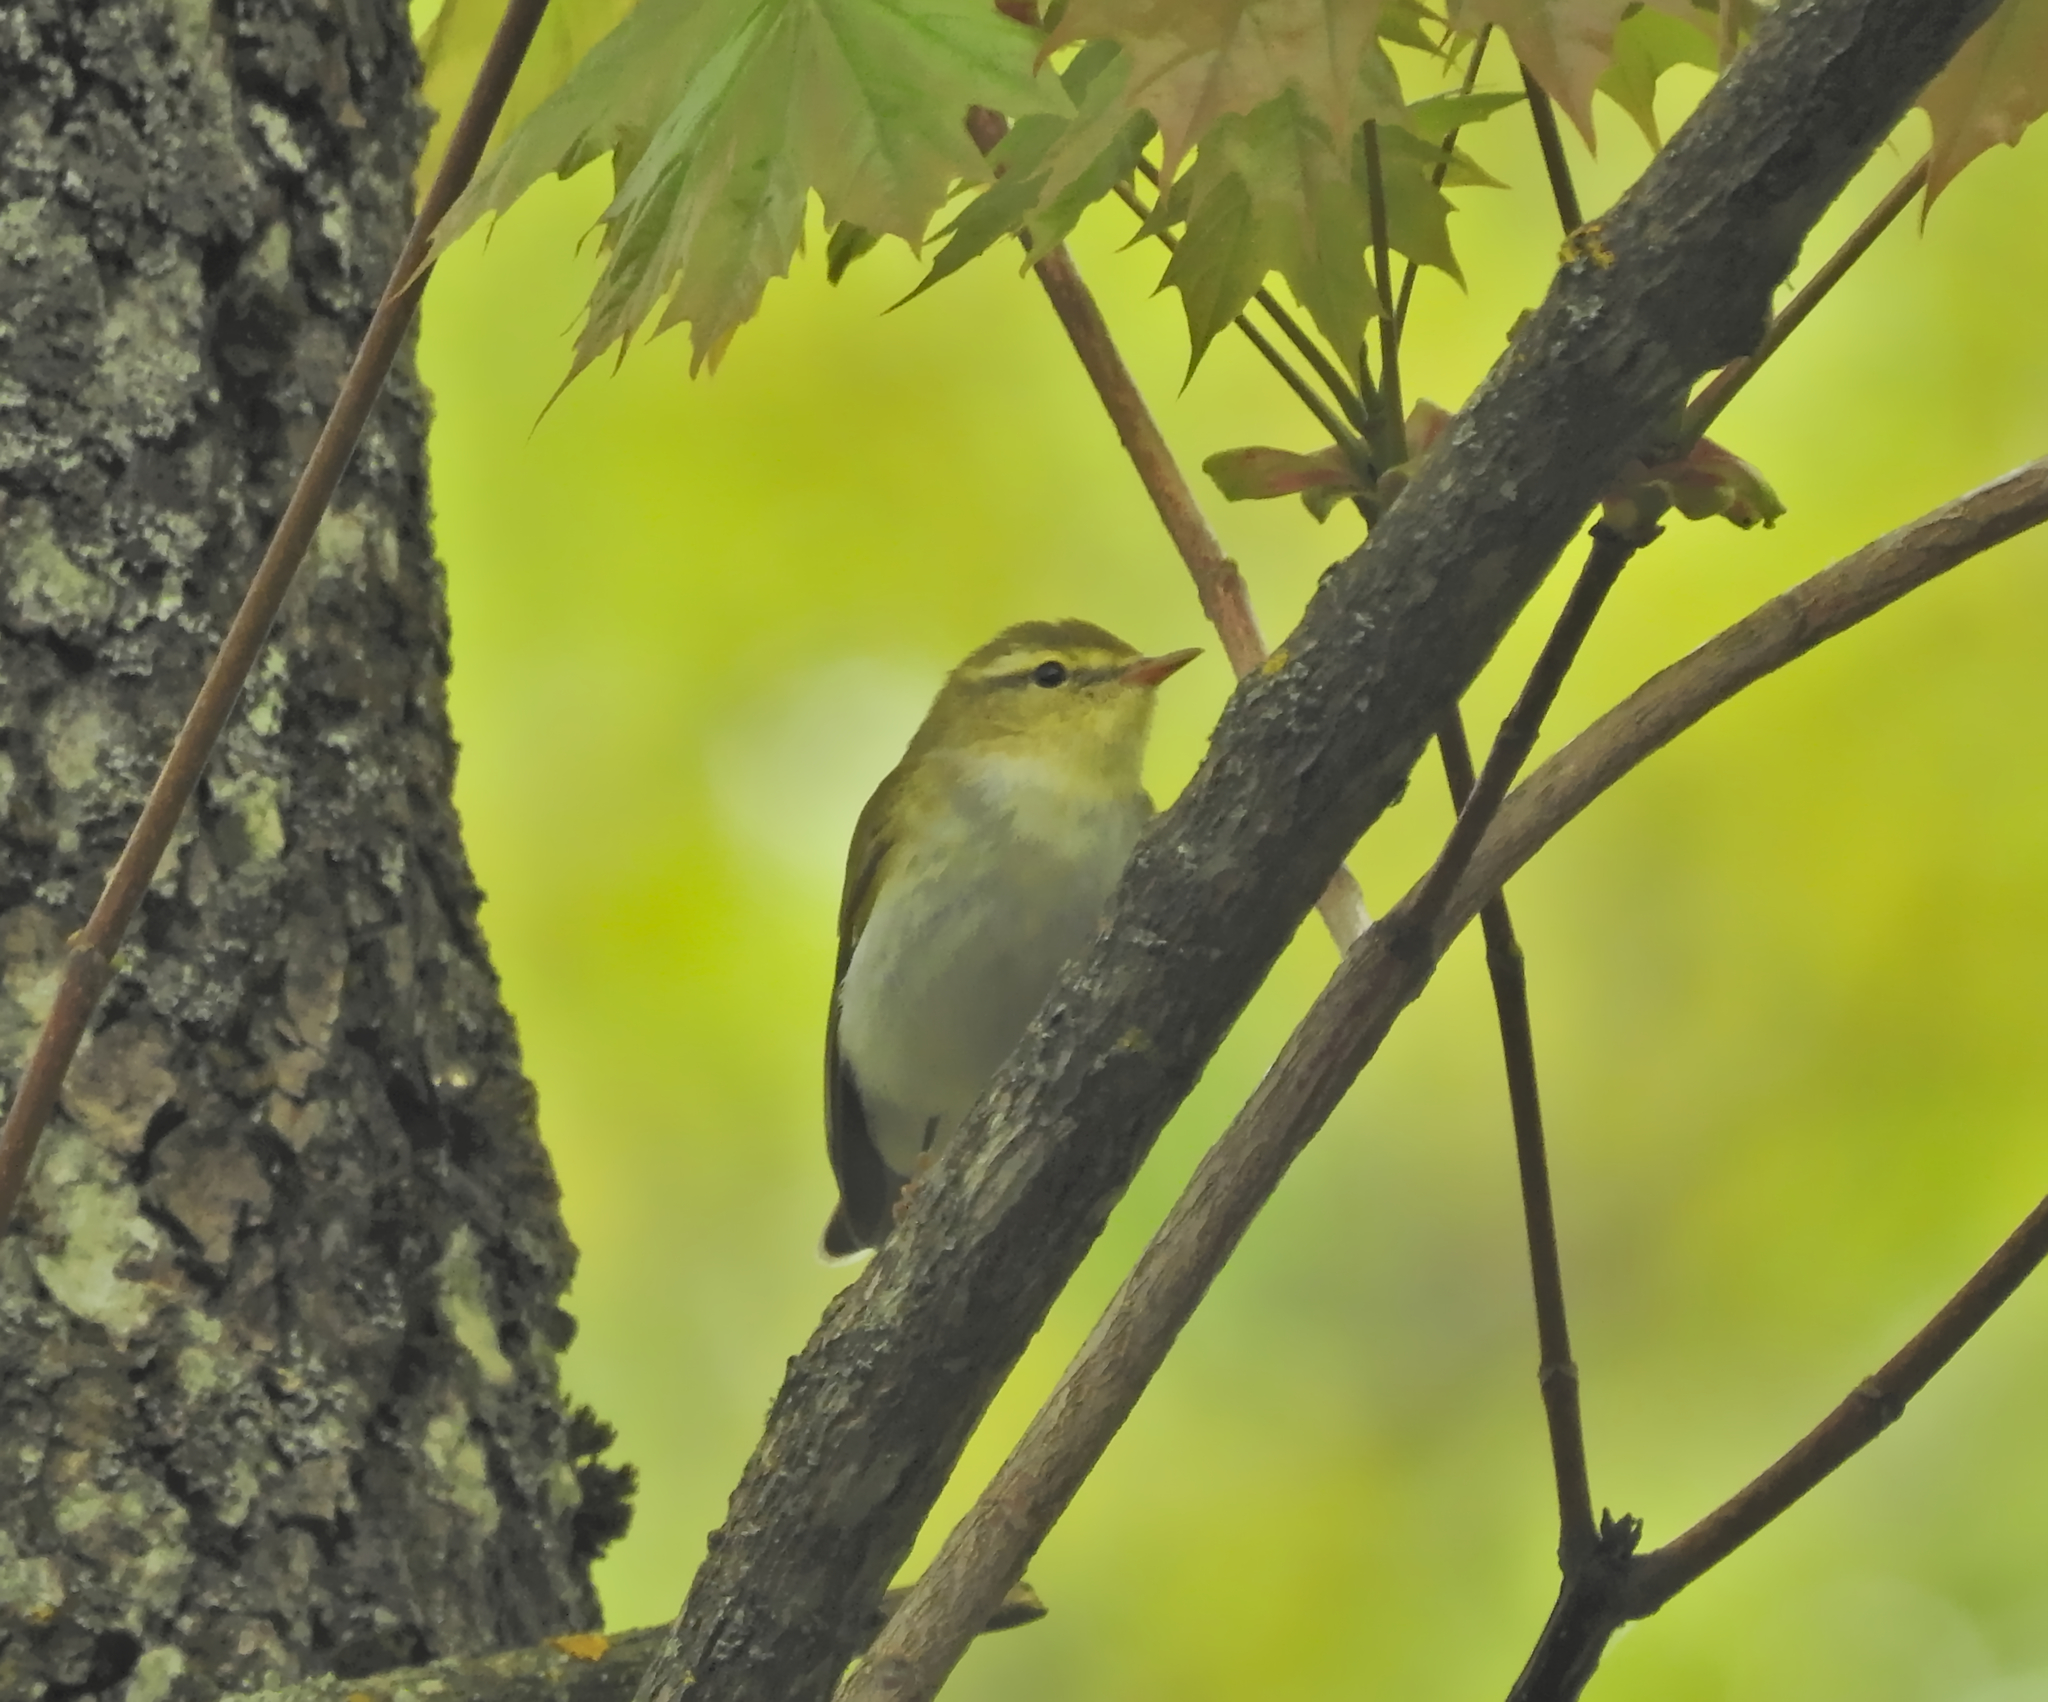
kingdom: Animalia
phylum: Chordata
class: Aves
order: Passeriformes
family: Phylloscopidae
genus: Phylloscopus
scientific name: Phylloscopus sibillatrix
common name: Wood warbler
